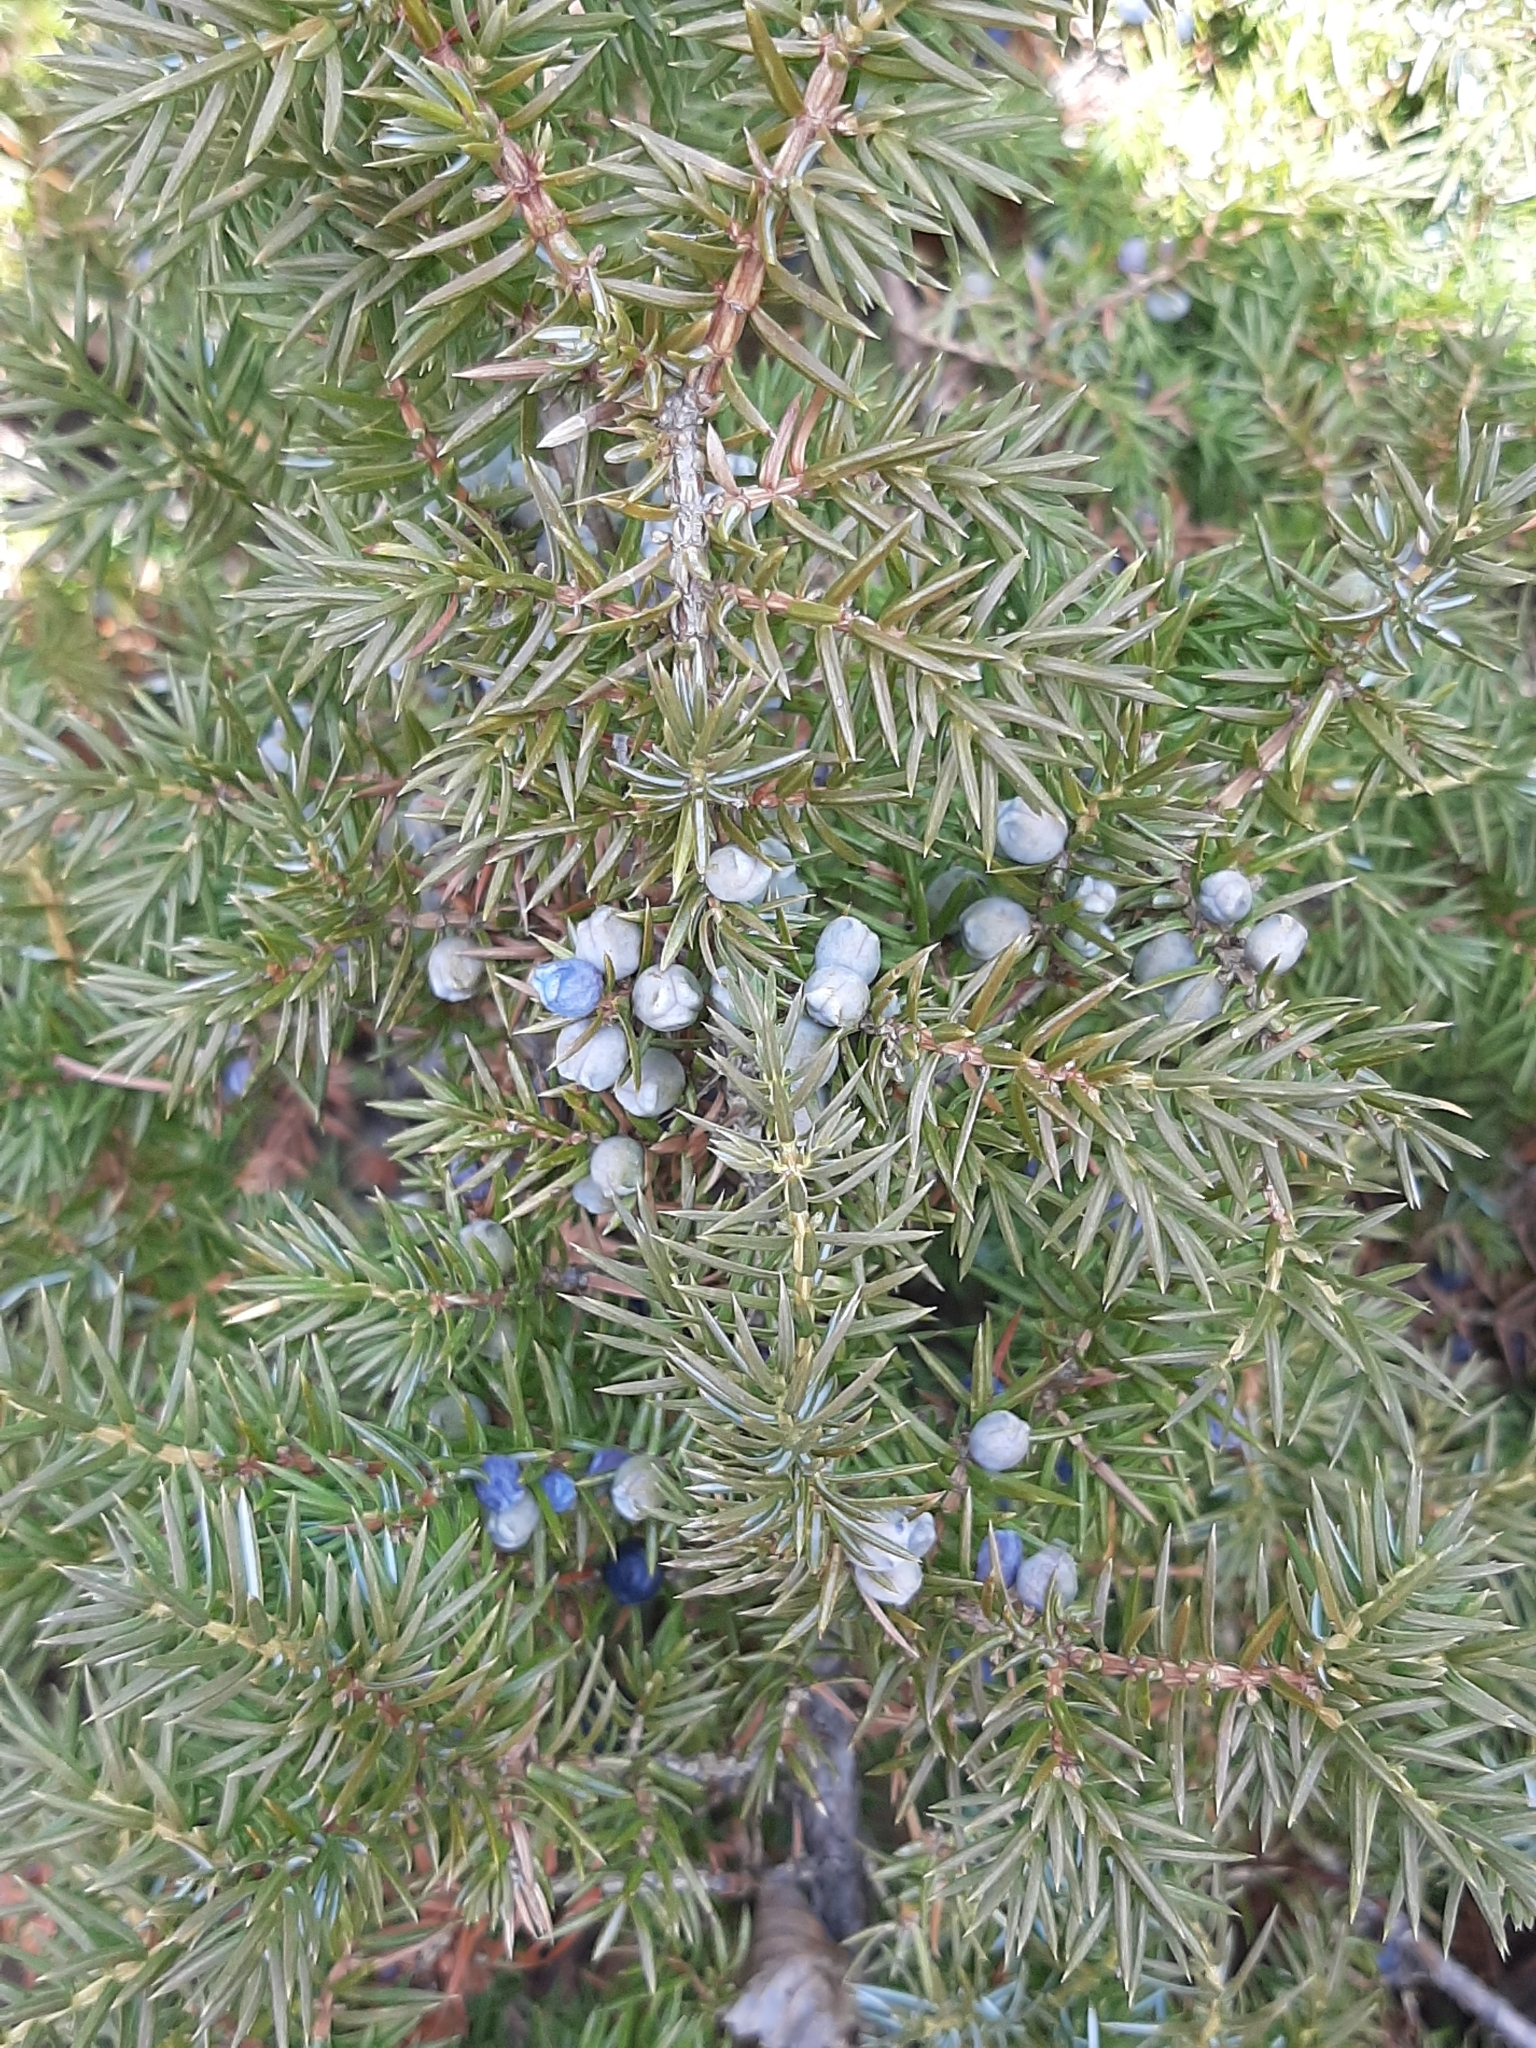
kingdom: Plantae
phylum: Tracheophyta
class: Pinopsida
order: Pinales
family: Cupressaceae
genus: Juniperus
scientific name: Juniperus communis
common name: Common juniper
